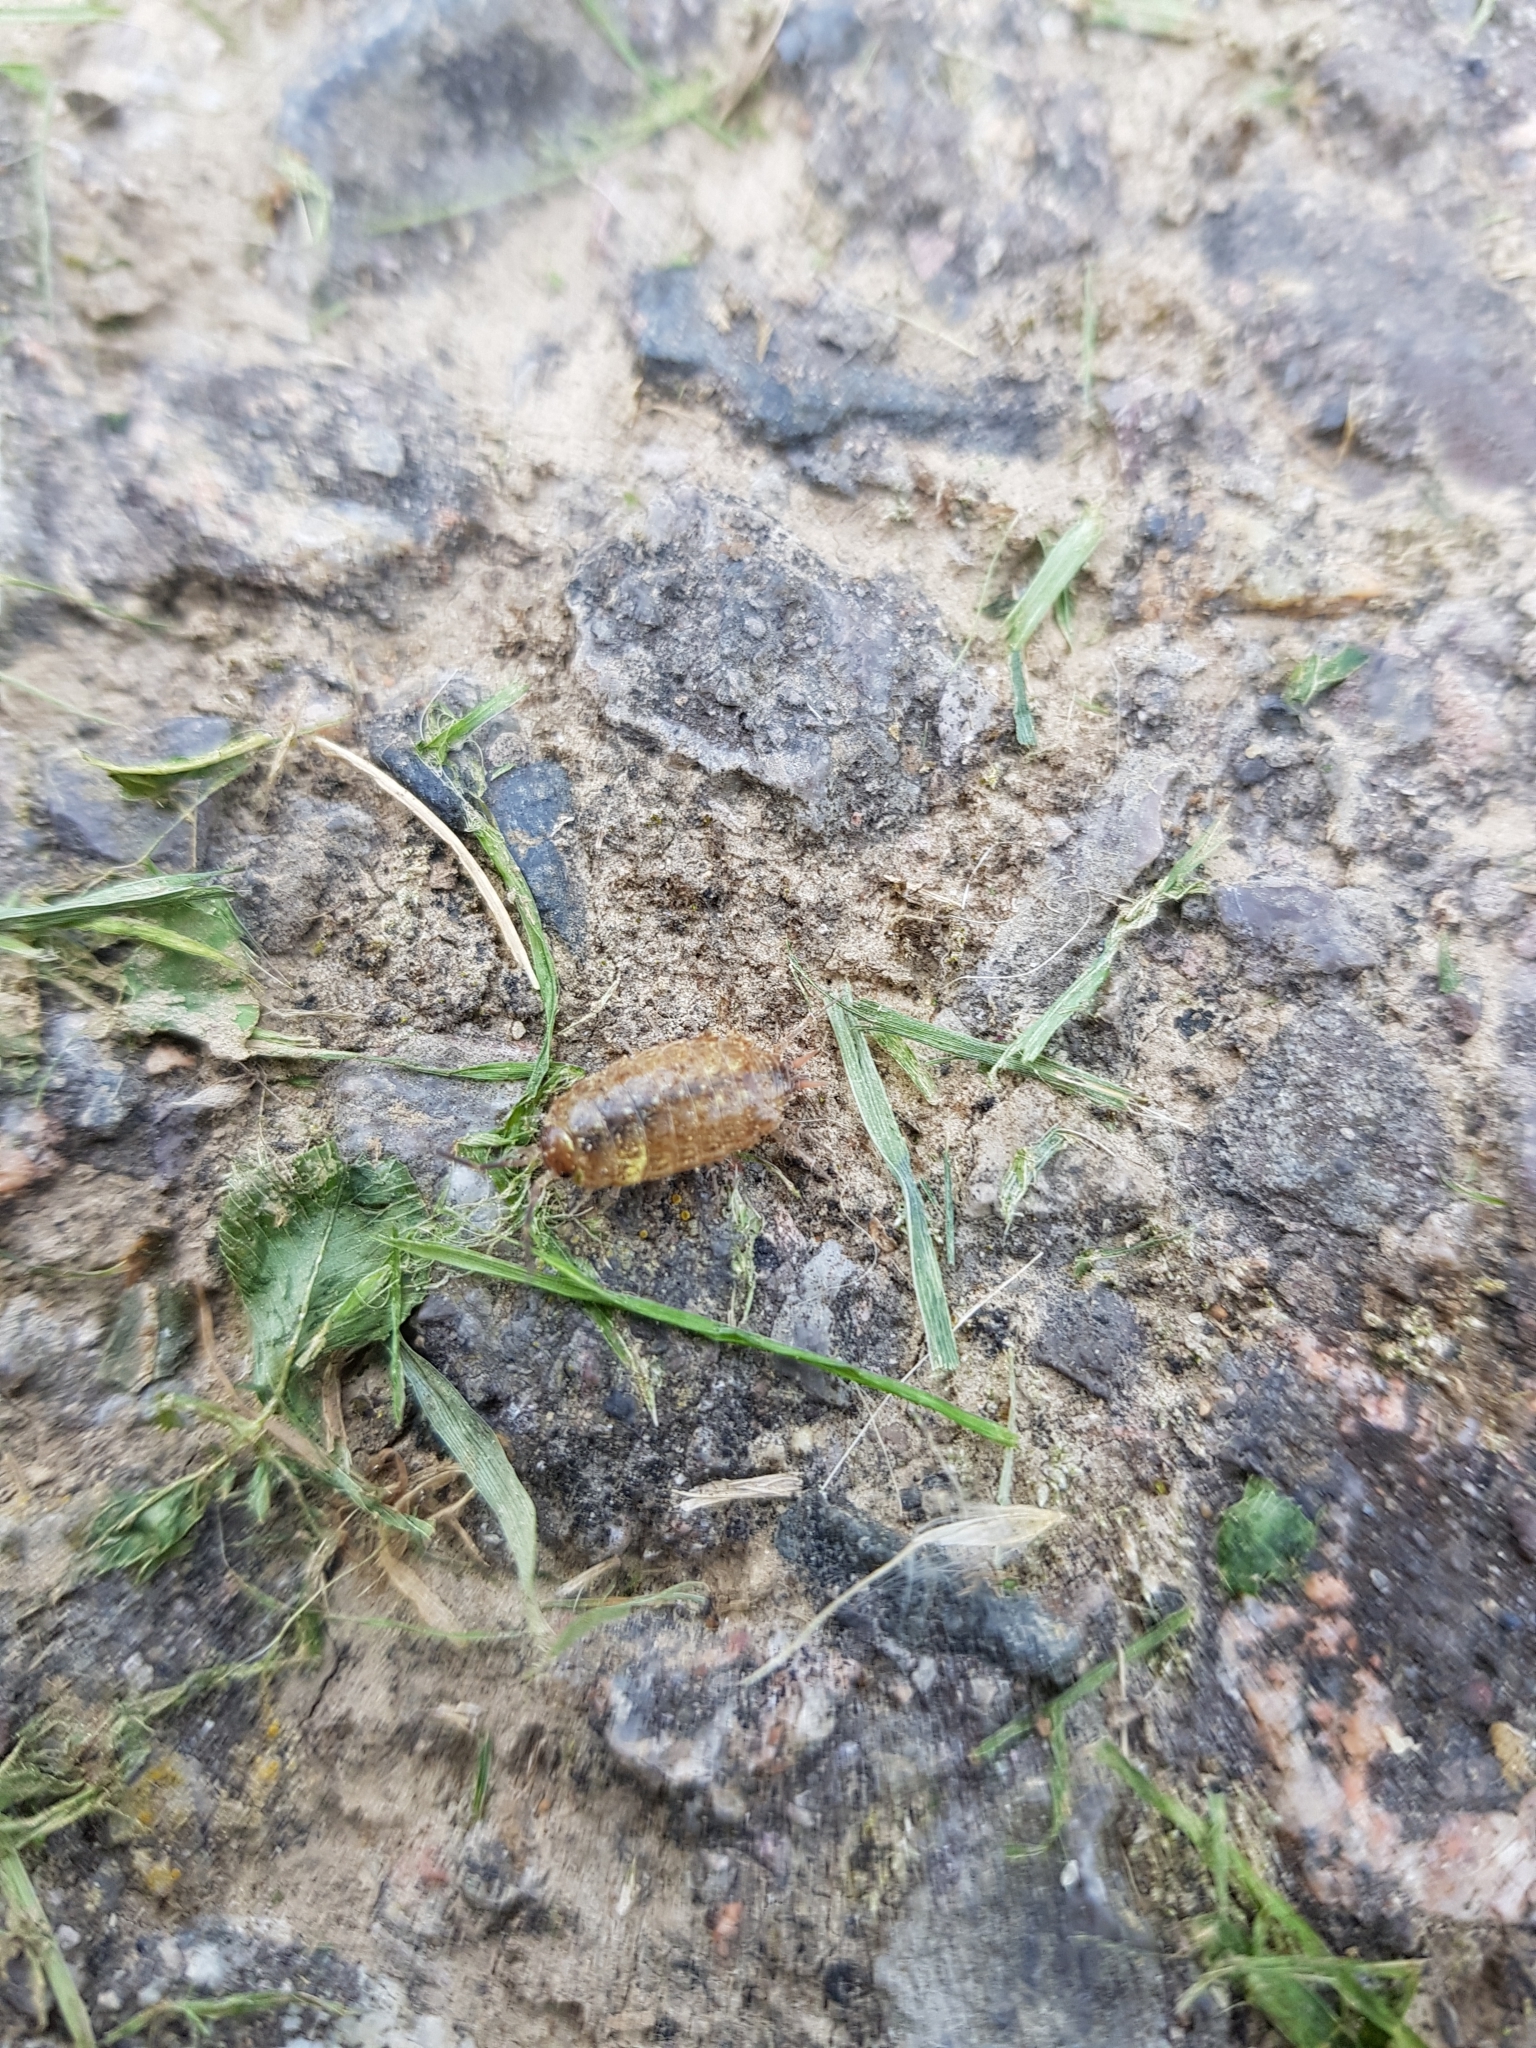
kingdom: Animalia
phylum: Arthropoda
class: Malacostraca
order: Isopoda
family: Philosciidae
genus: Philoscia
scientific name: Philoscia muscorum
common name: Common striped woodlouse
